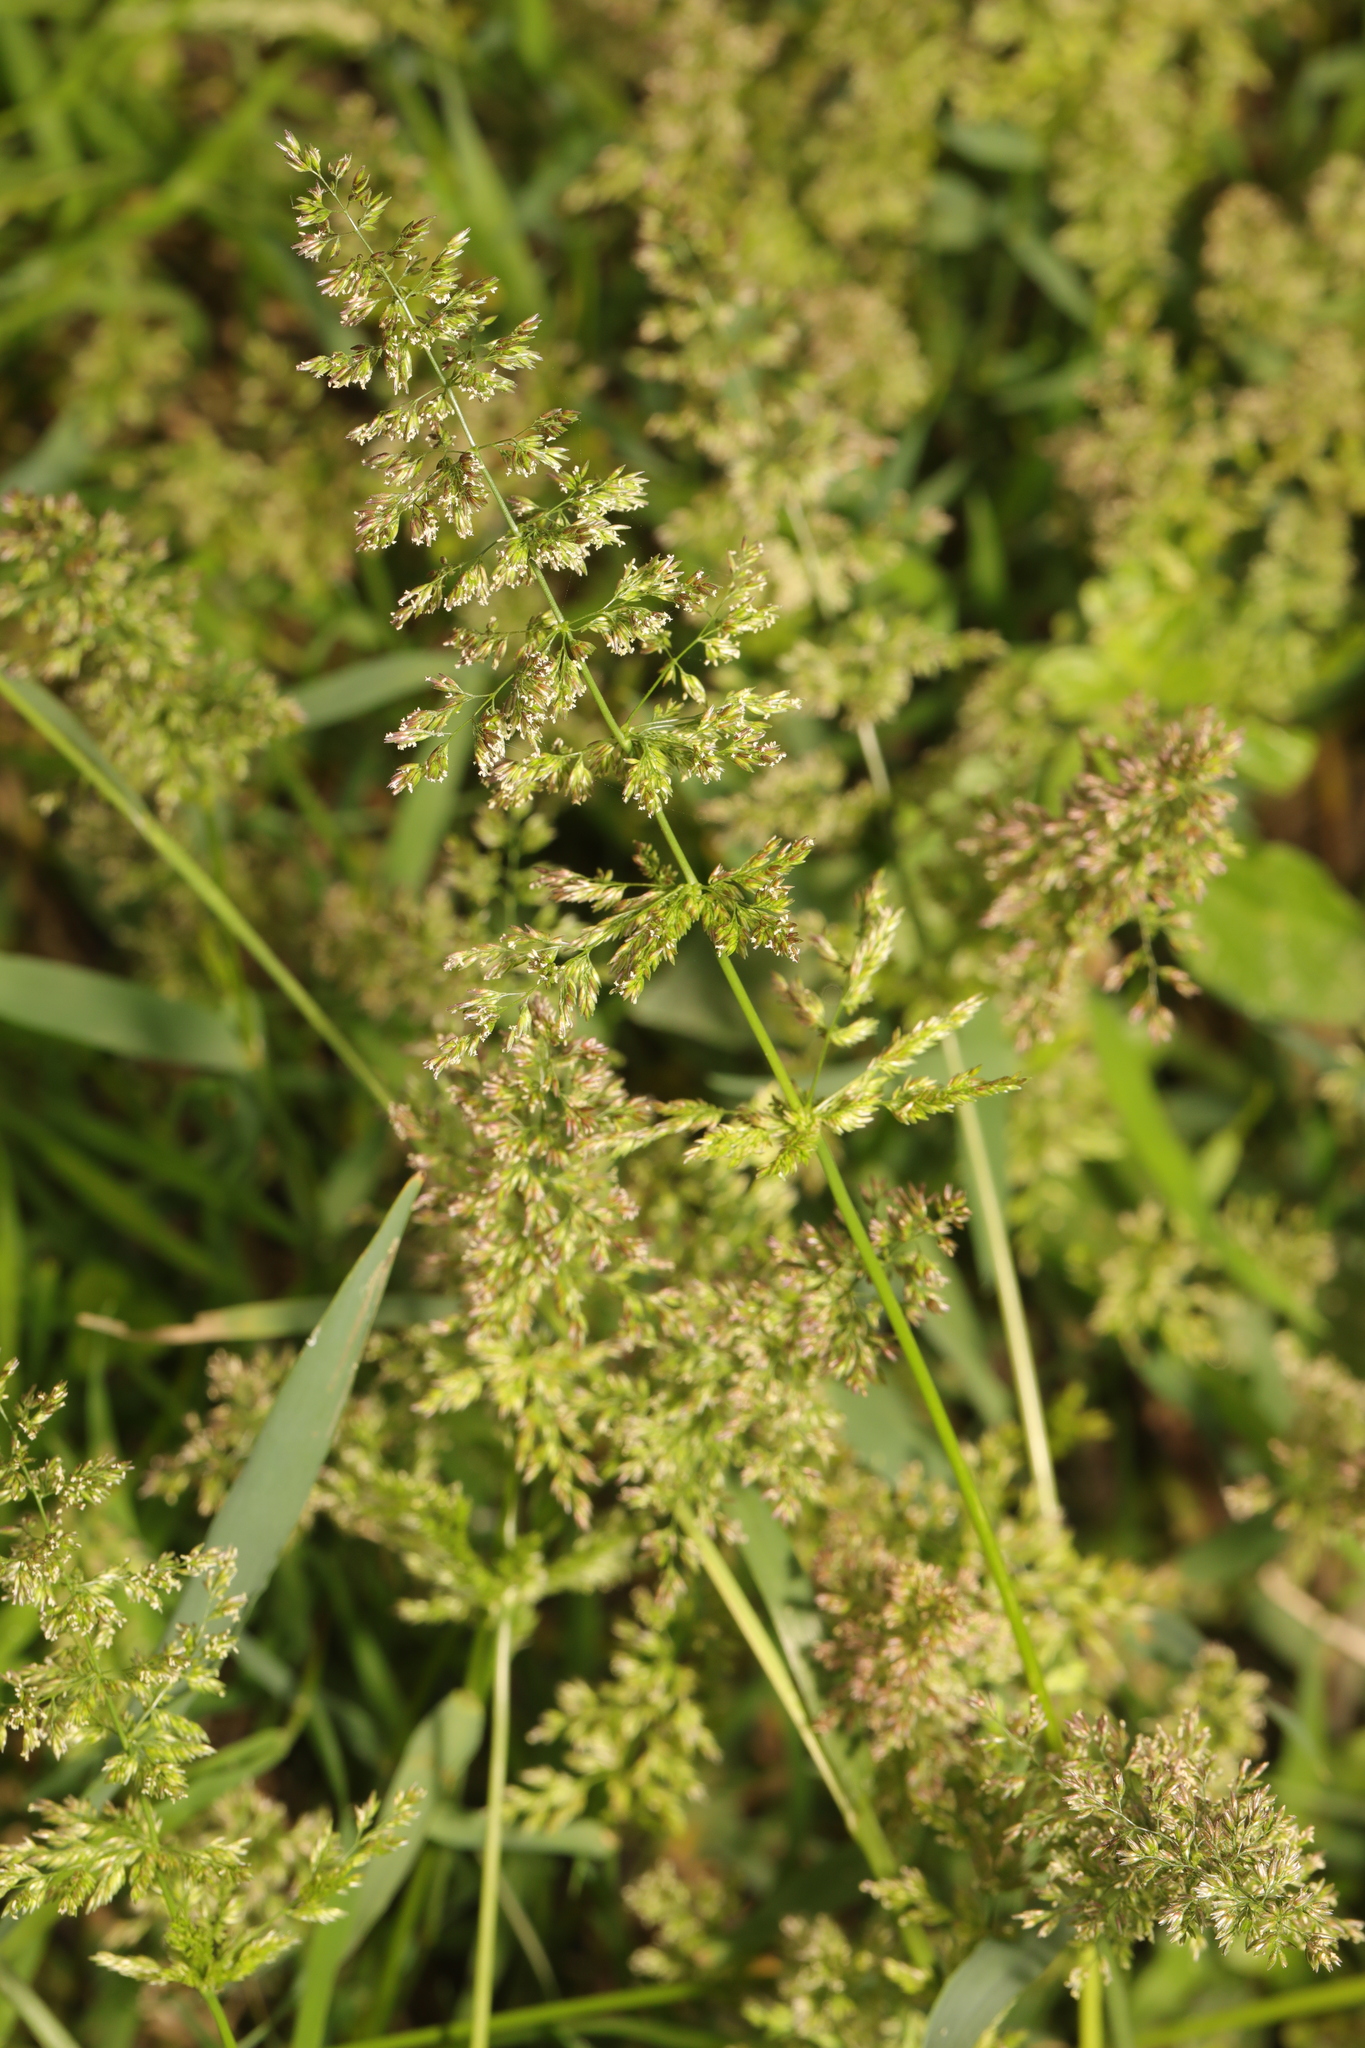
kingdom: Plantae
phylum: Tracheophyta
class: Liliopsida
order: Poales
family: Poaceae
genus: Polypogon
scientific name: Polypogon viridis
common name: Water bent
